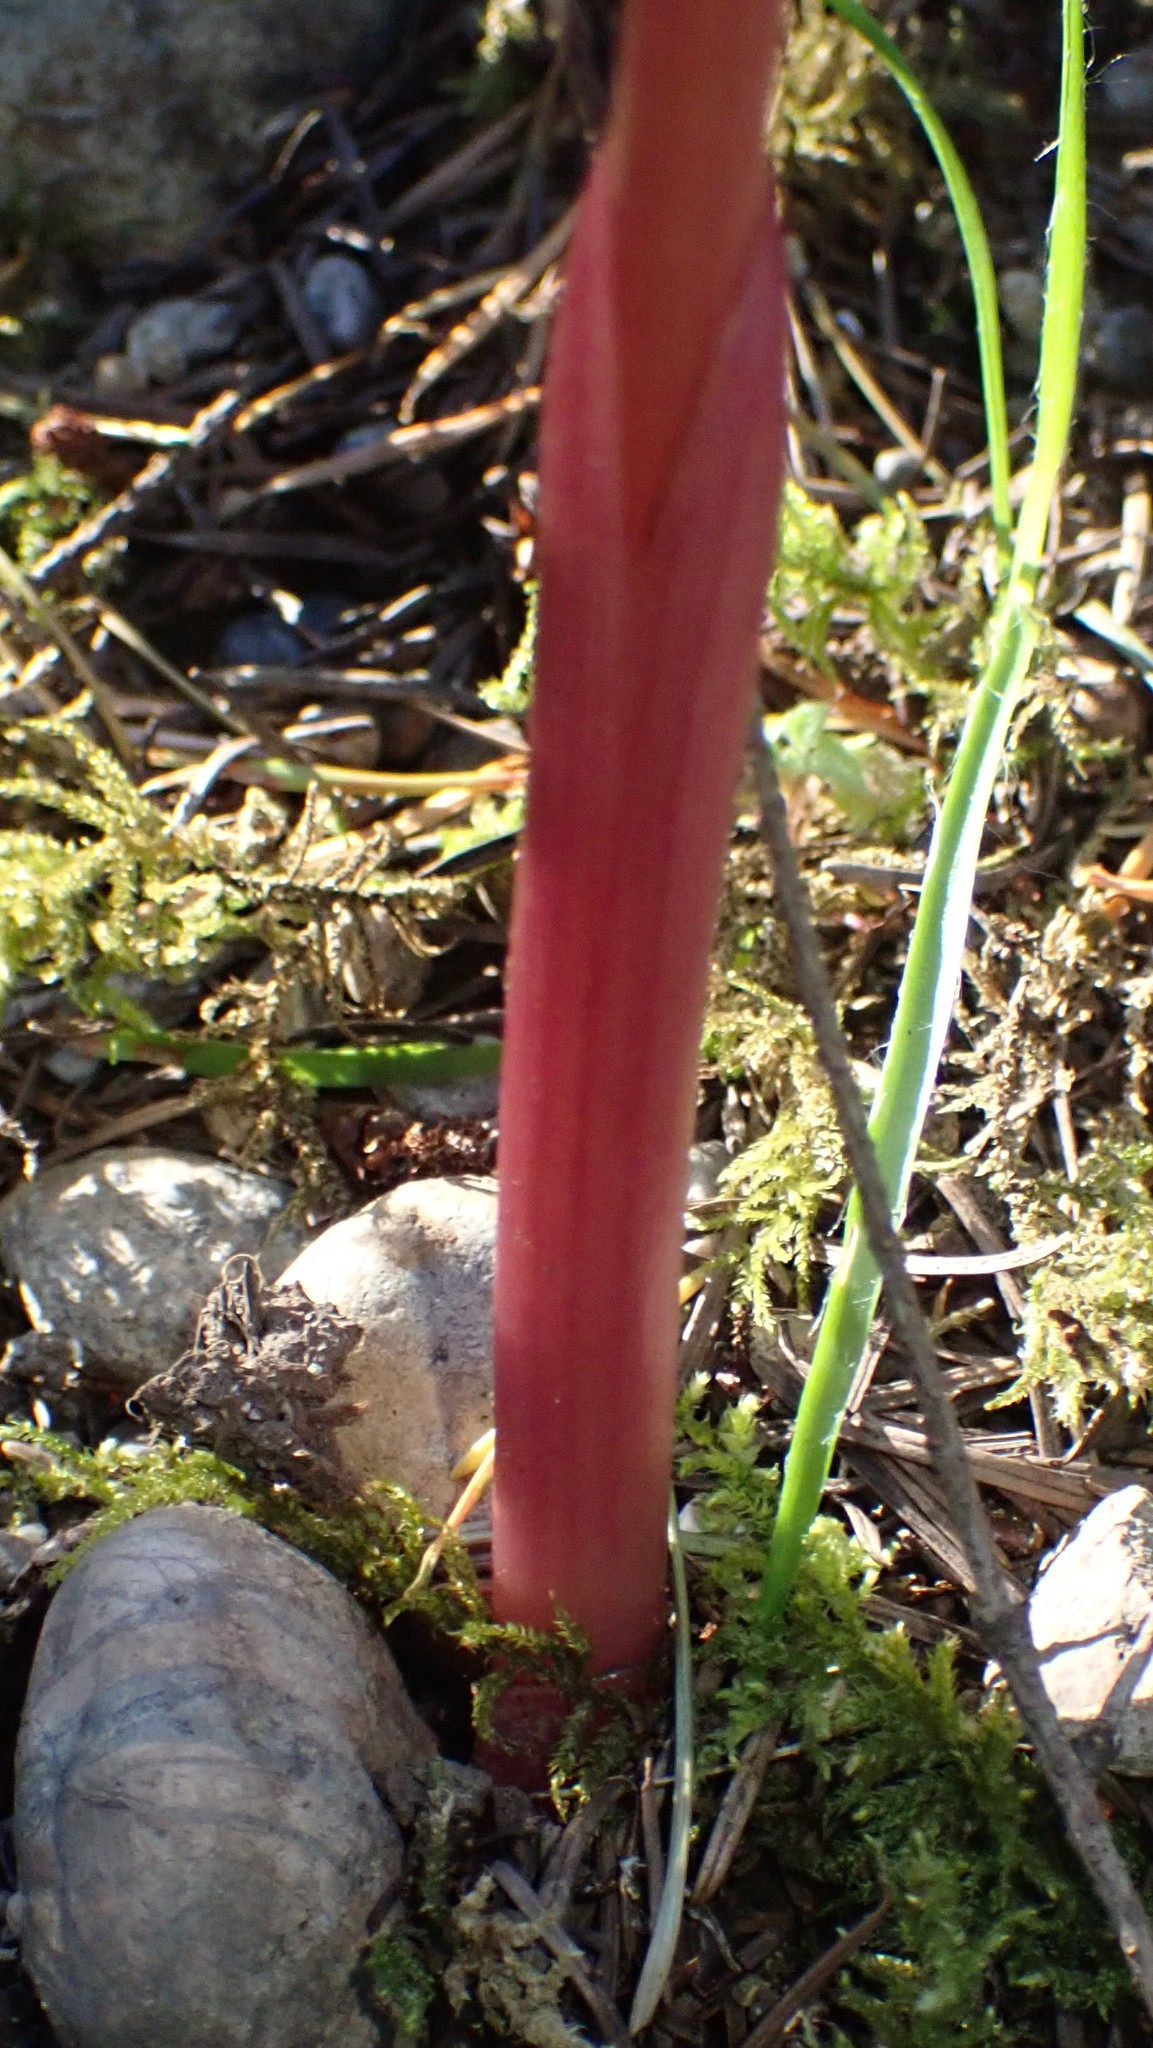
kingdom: Plantae
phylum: Tracheophyta
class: Liliopsida
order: Asparagales
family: Orchidaceae
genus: Corallorhiza
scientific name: Corallorhiza maculata
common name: Spotted coralroot
